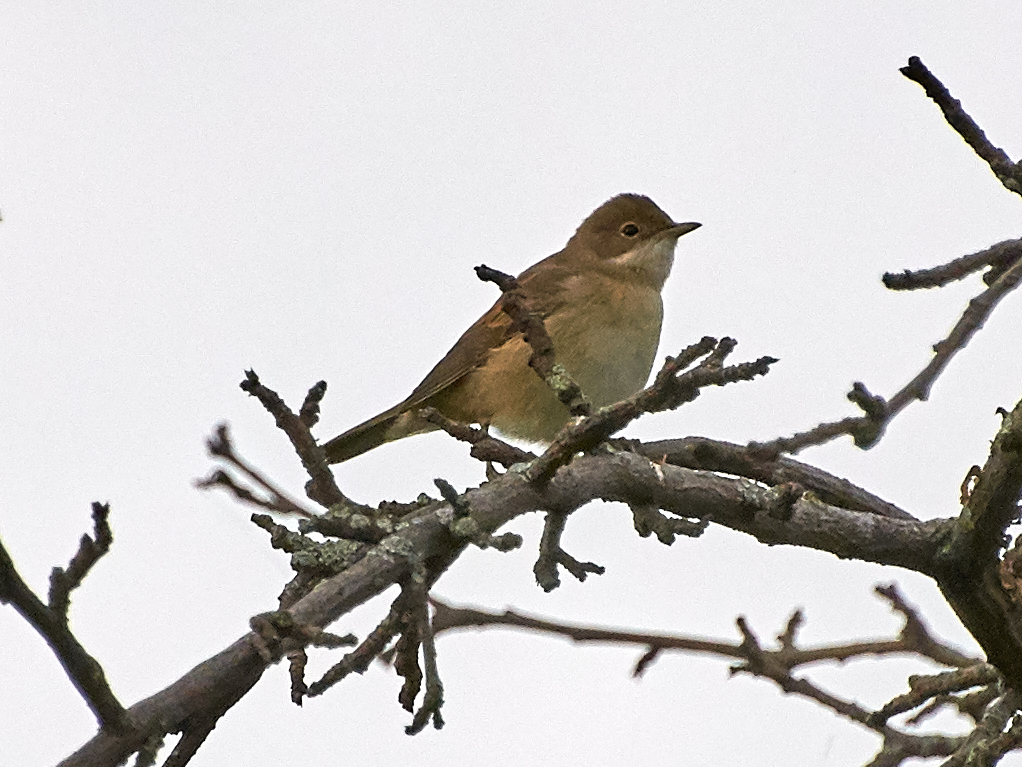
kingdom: Animalia
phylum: Chordata
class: Aves
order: Passeriformes
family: Sylviidae
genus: Sylvia
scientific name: Sylvia communis
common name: Common whitethroat
